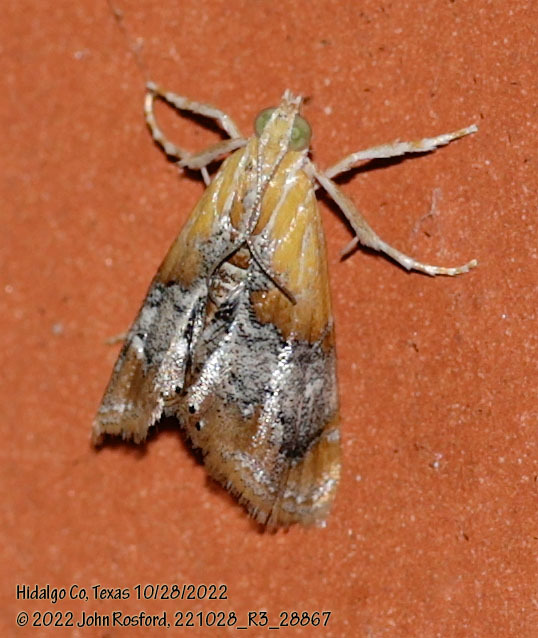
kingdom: Animalia
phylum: Arthropoda
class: Insecta
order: Lepidoptera
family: Crambidae
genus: Dicymolomia
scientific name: Dicymolomia julianalis
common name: Julia's dicymolomia moth
